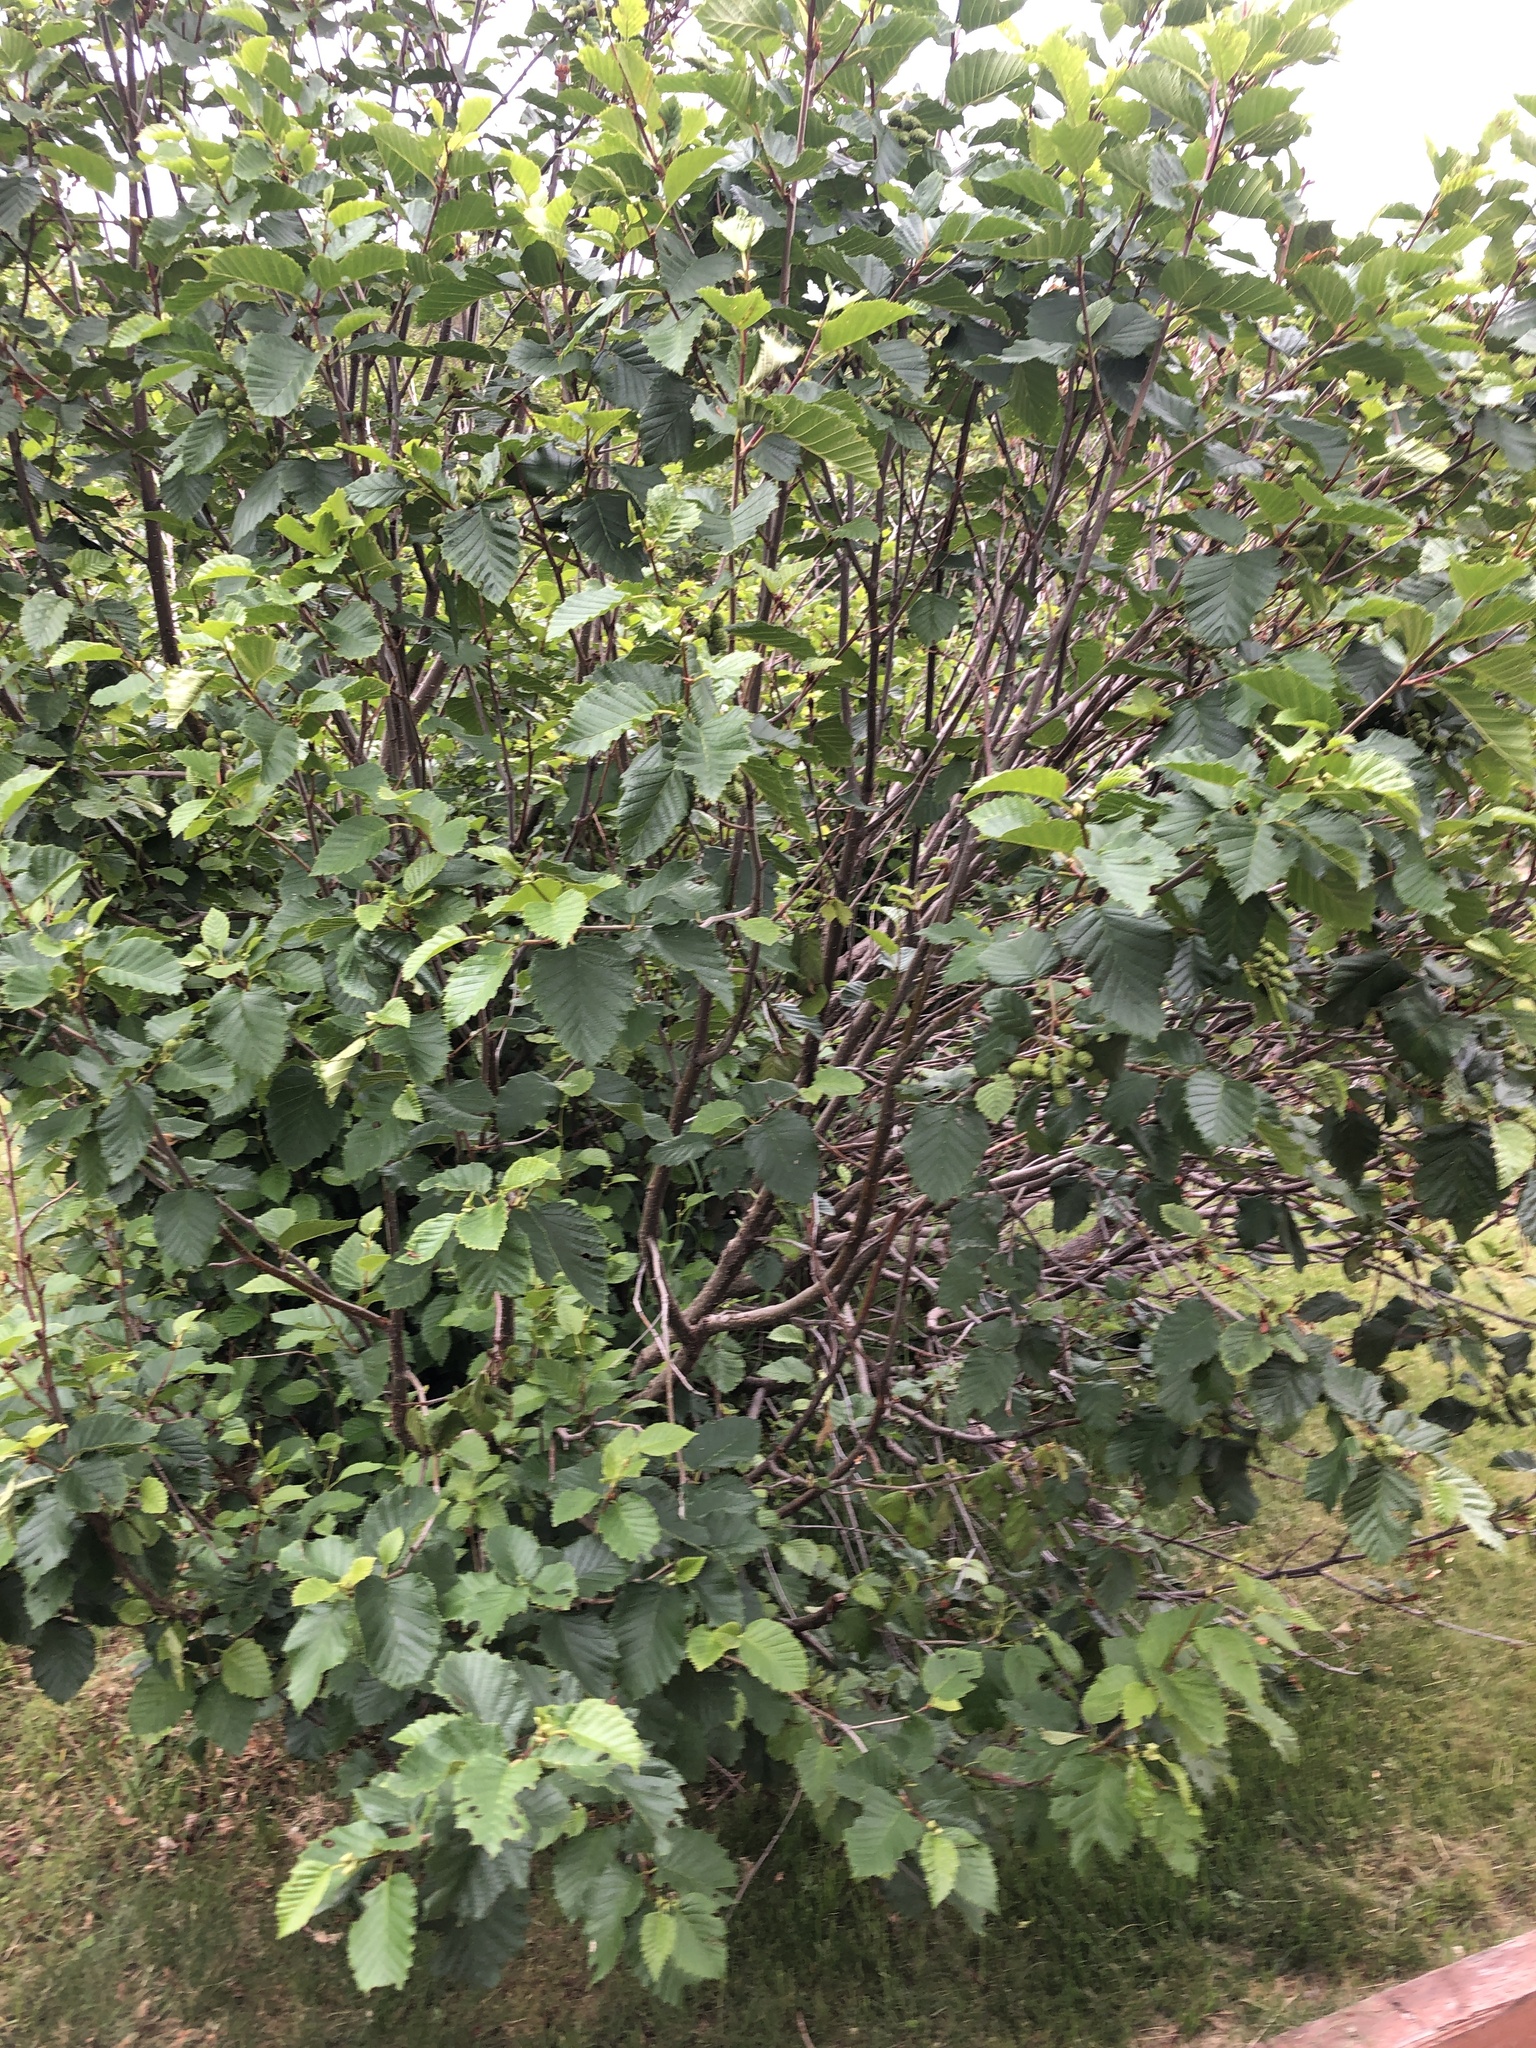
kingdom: Plantae
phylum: Tracheophyta
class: Magnoliopsida
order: Fagales
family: Betulaceae
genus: Alnus
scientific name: Alnus alnobetula
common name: Green alder
